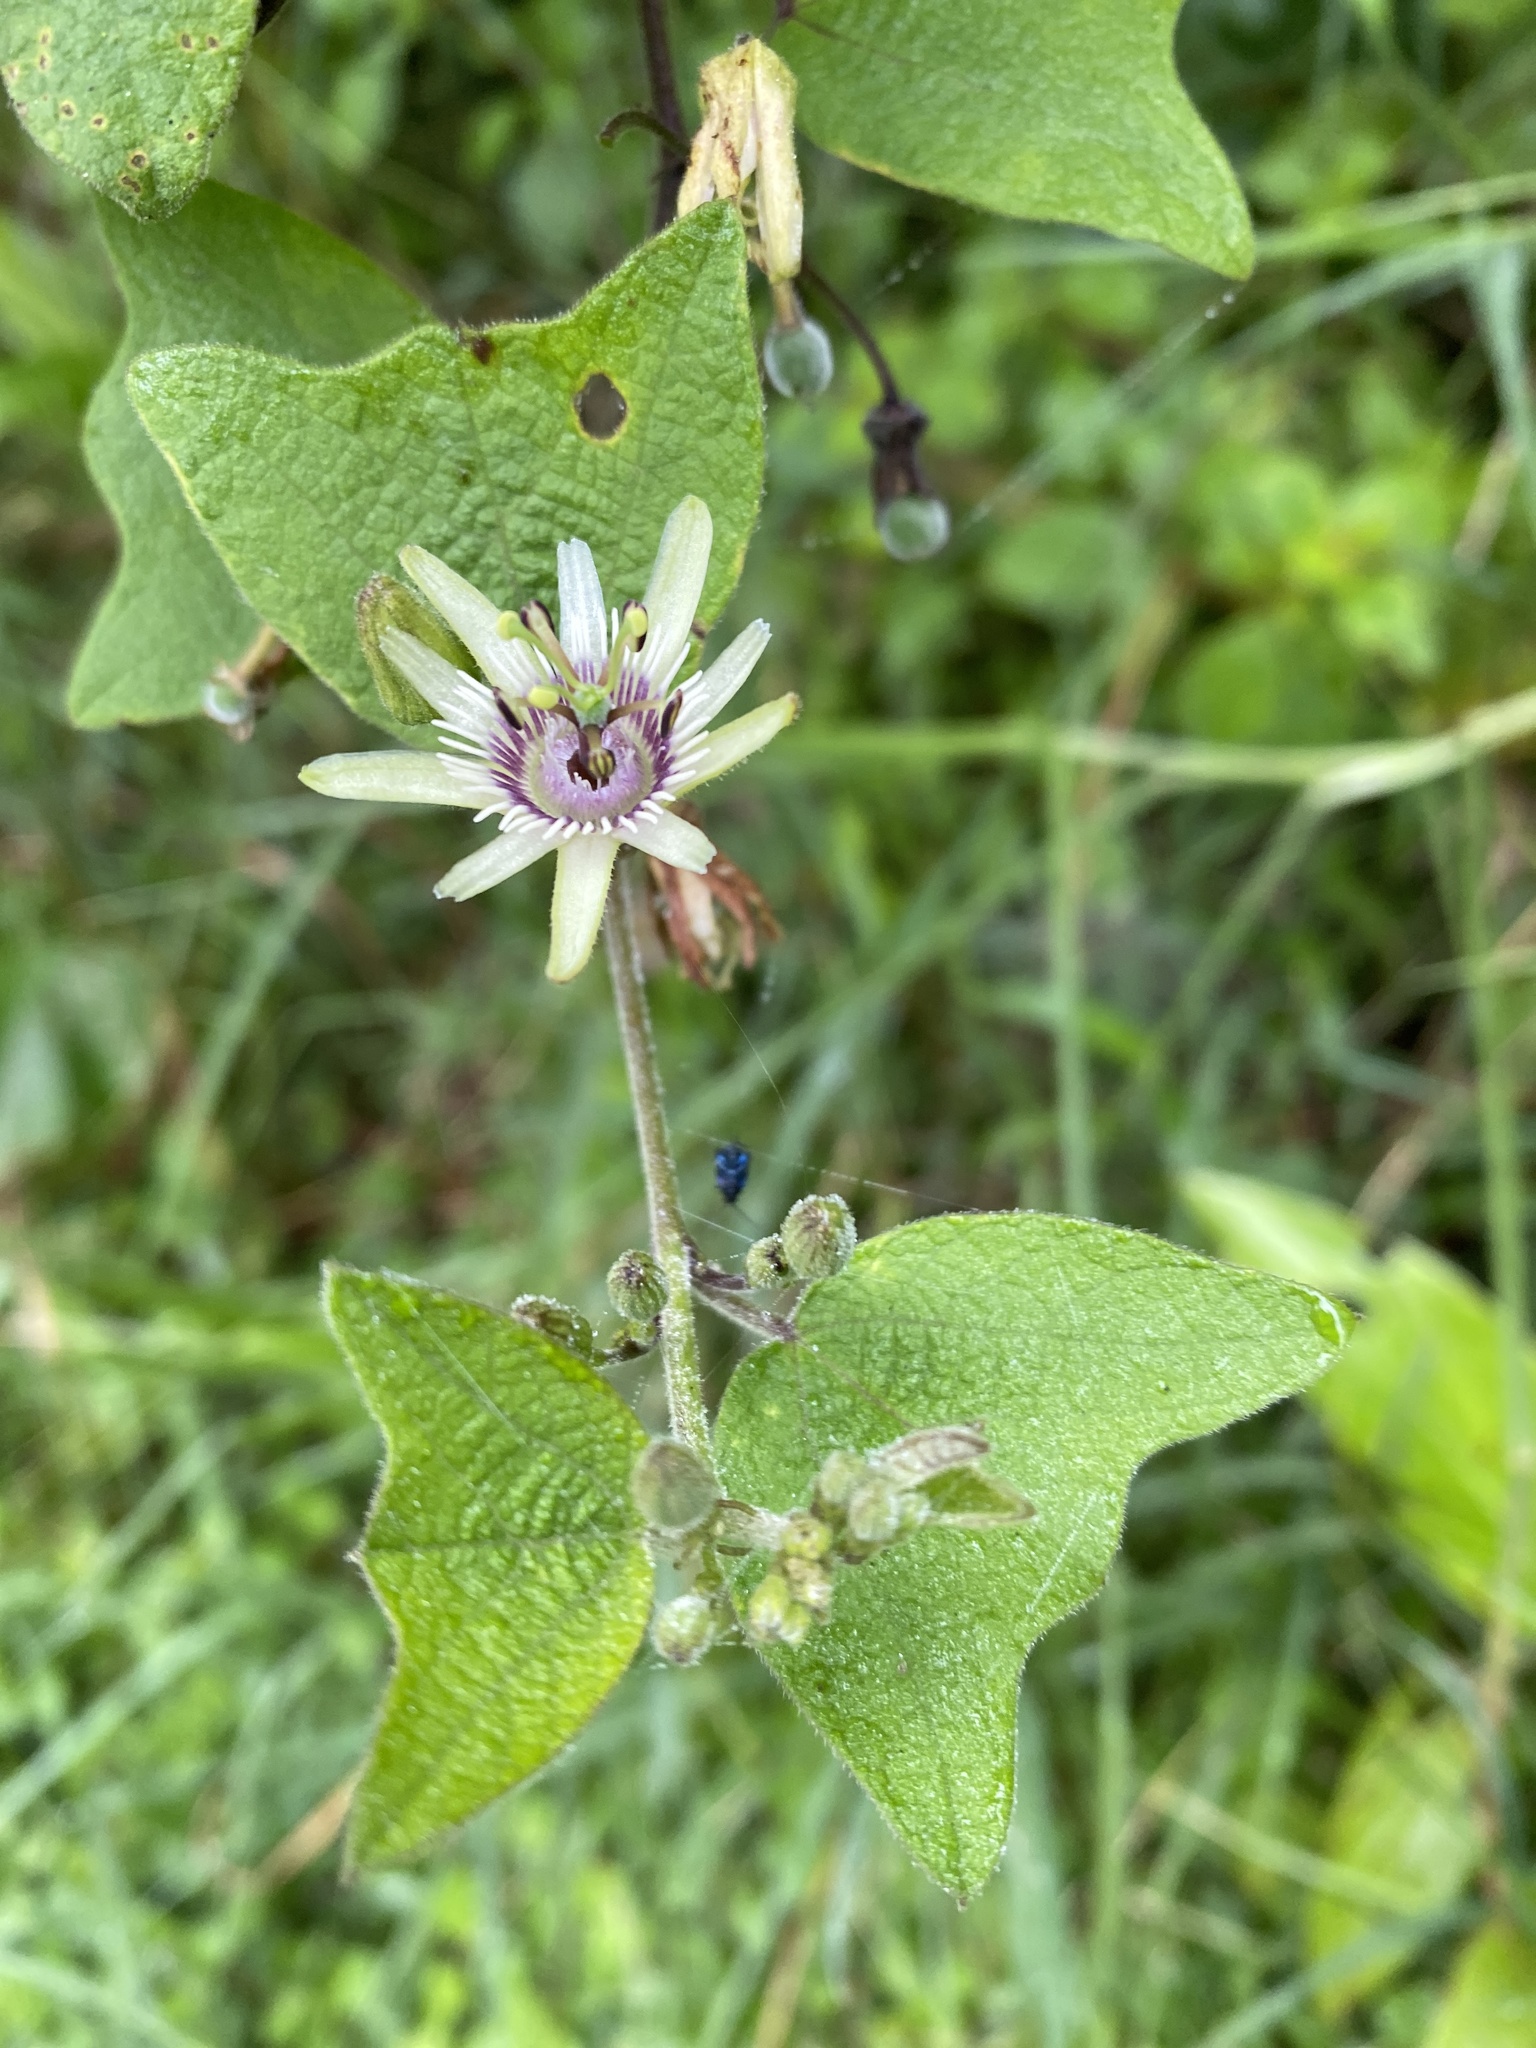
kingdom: Plantae
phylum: Tracheophyta
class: Magnoliopsida
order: Malpighiales
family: Passifloraceae
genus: Passiflora
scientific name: Passiflora sexflora
